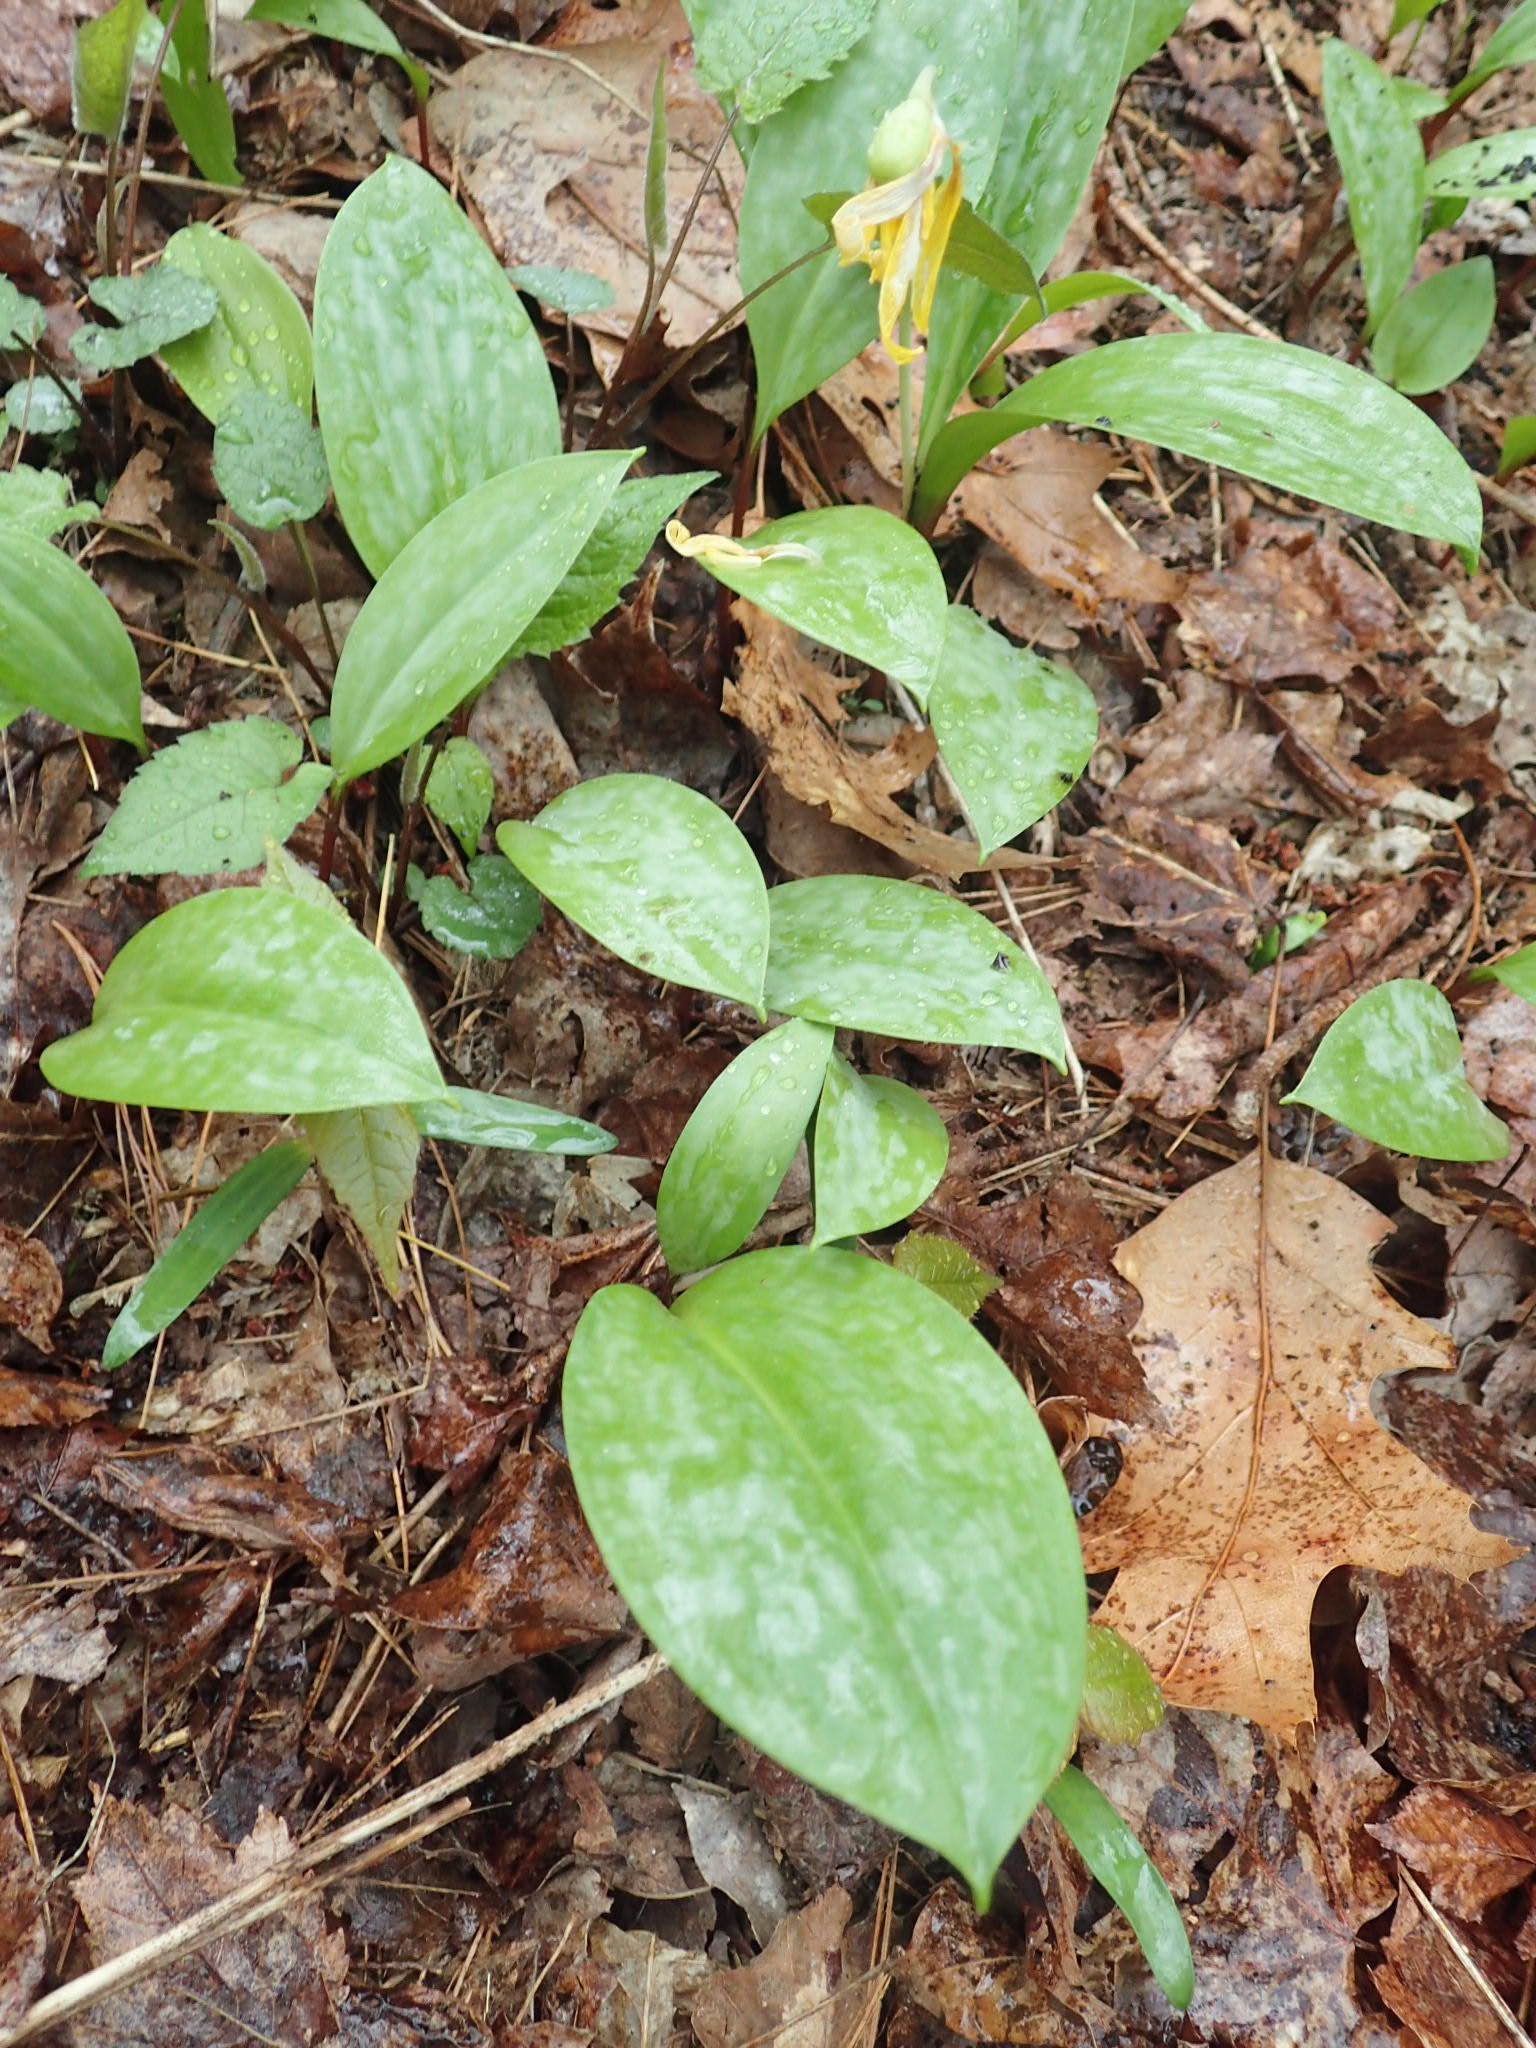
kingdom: Plantae
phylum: Tracheophyta
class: Liliopsida
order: Liliales
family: Liliaceae
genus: Erythronium
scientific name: Erythronium americanum
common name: Yellow adder's-tongue
